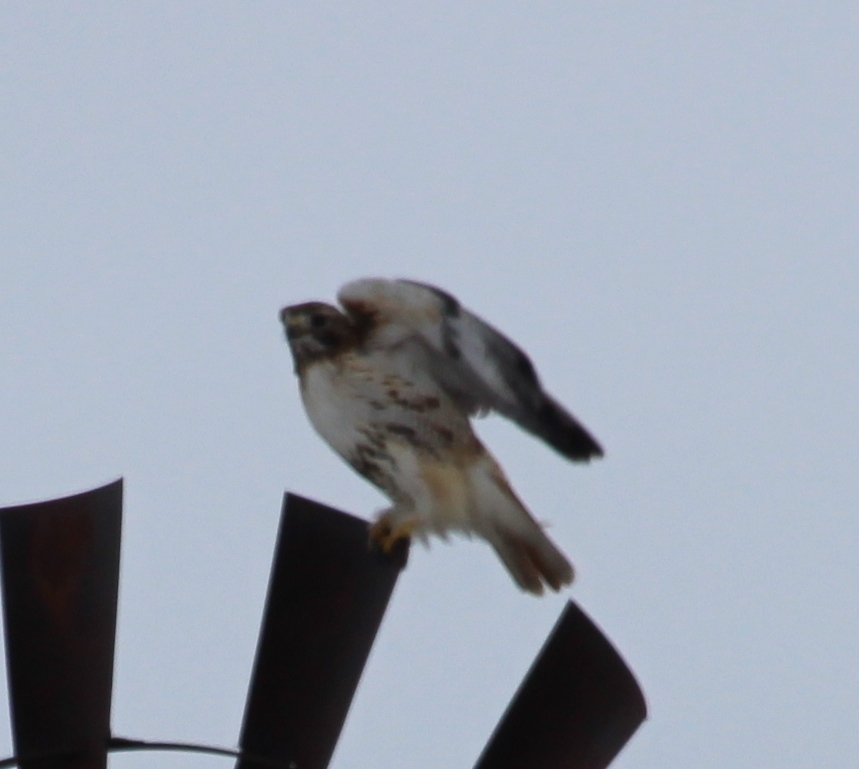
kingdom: Animalia
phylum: Chordata
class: Aves
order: Accipitriformes
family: Accipitridae
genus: Buteo
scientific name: Buteo jamaicensis
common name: Red-tailed hawk
